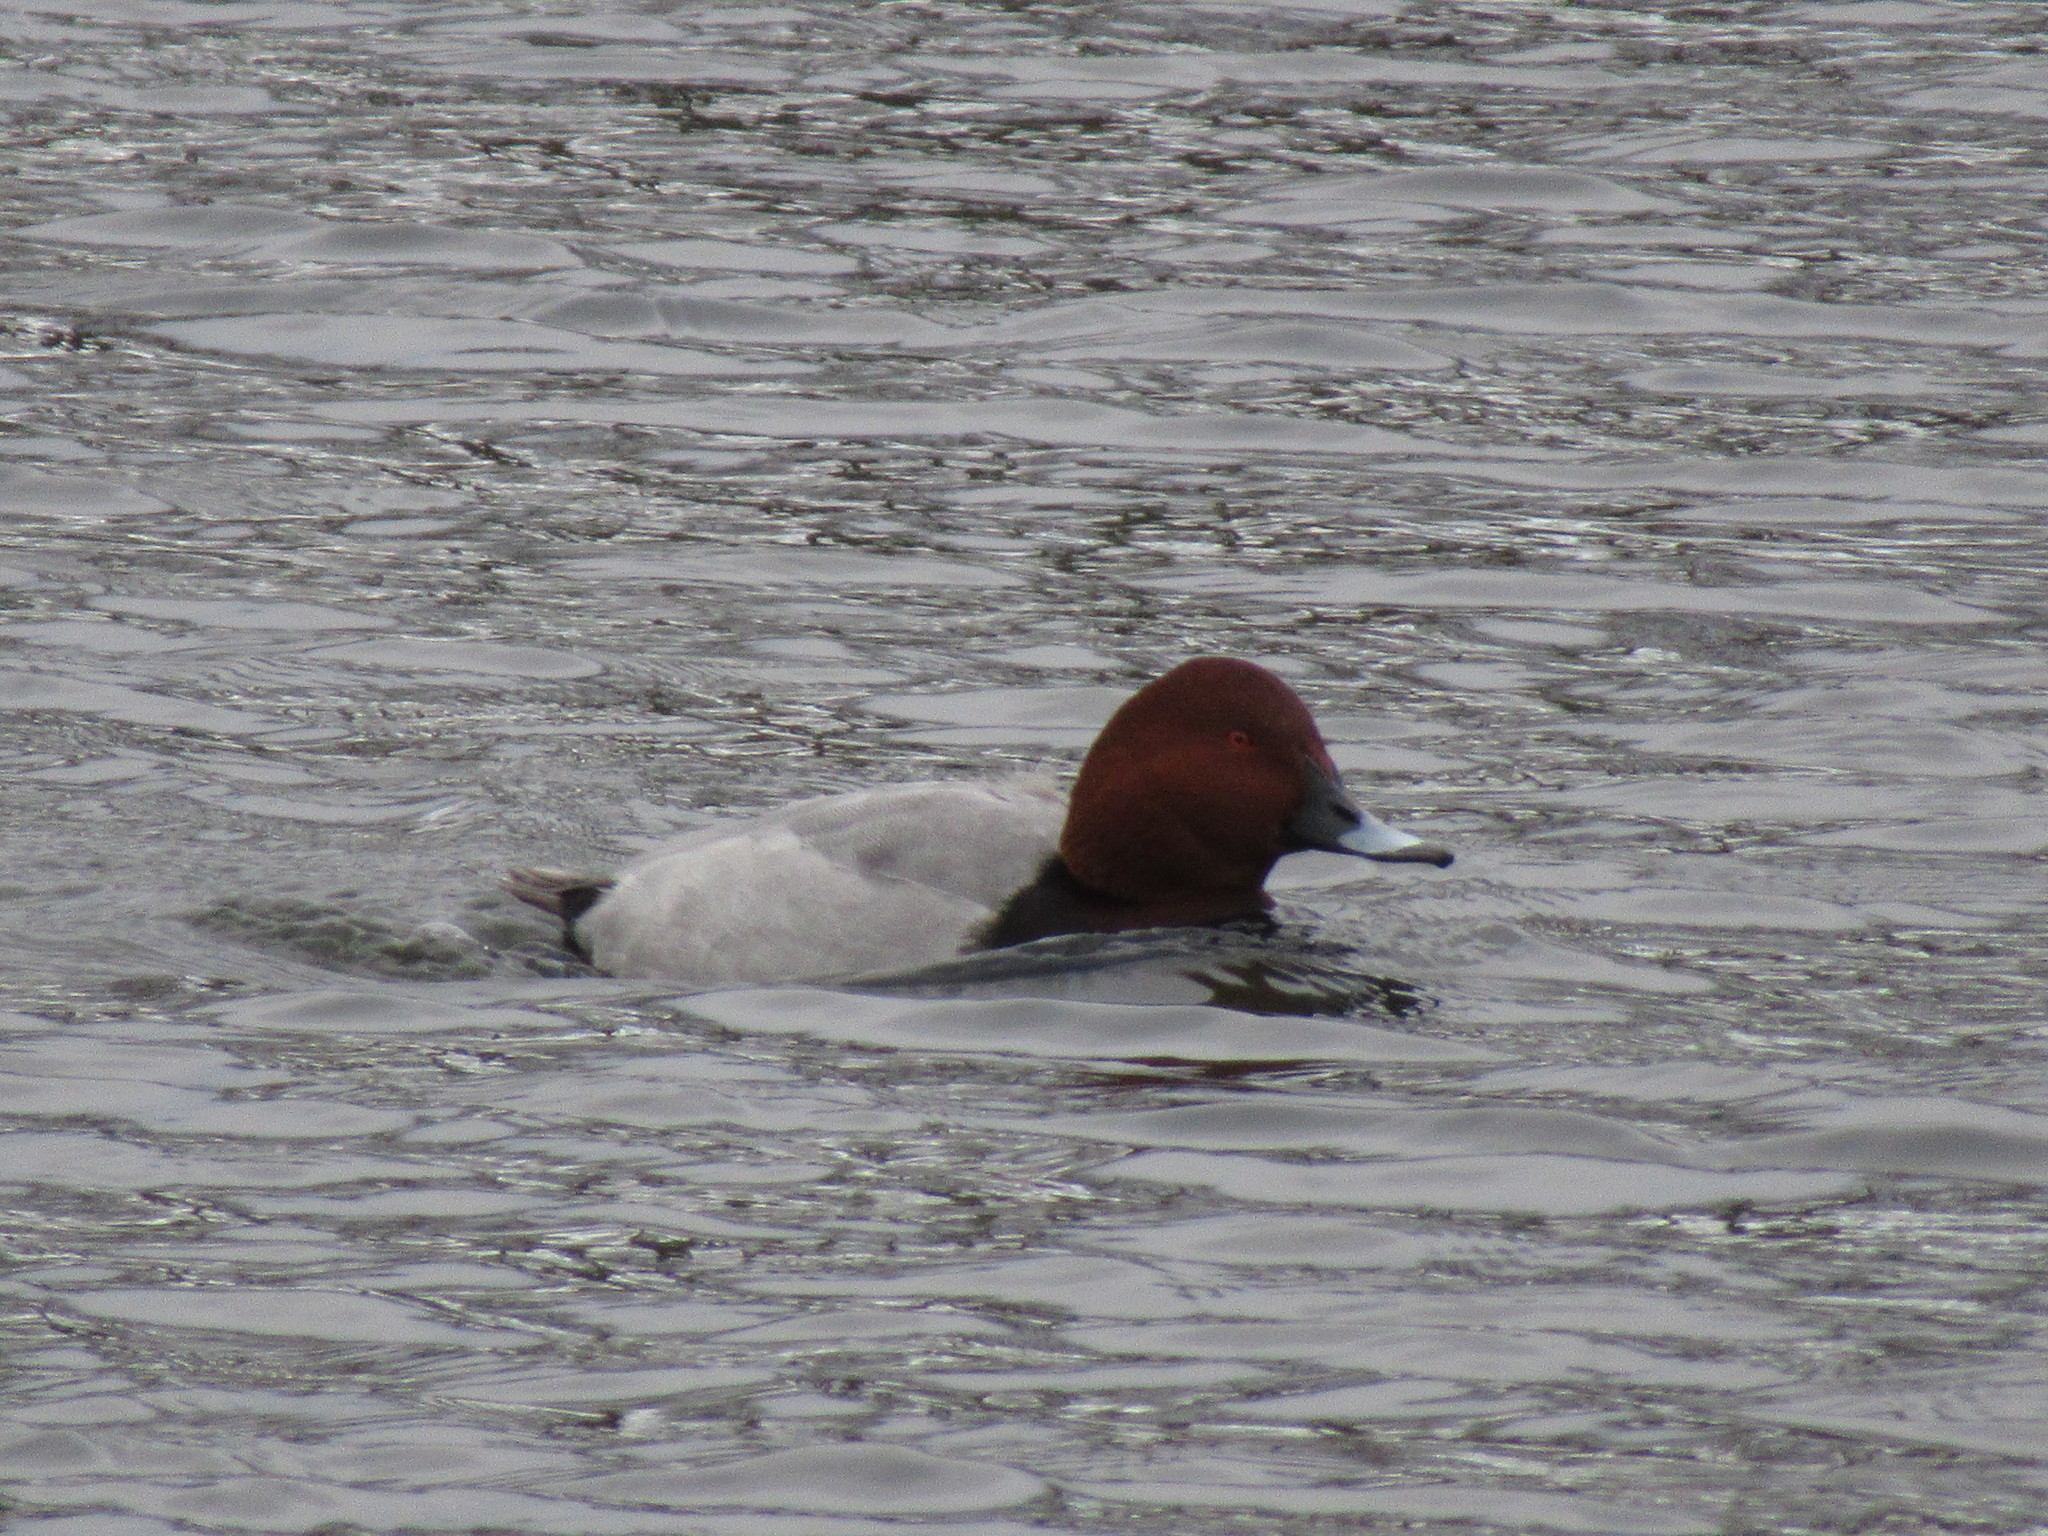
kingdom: Animalia
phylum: Chordata
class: Aves
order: Anseriformes
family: Anatidae
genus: Aythya
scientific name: Aythya ferina
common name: Common pochard
